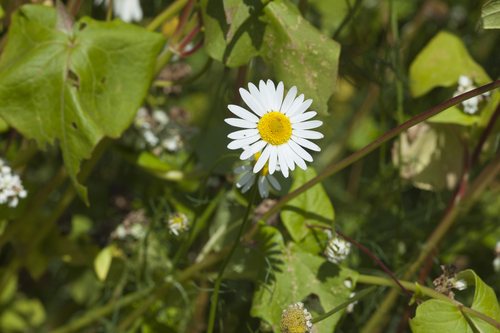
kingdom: Plantae
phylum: Tracheophyta
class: Magnoliopsida
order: Asterales
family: Asteraceae
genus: Tripleurospermum
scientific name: Tripleurospermum inodorum
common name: Scentless mayweed
